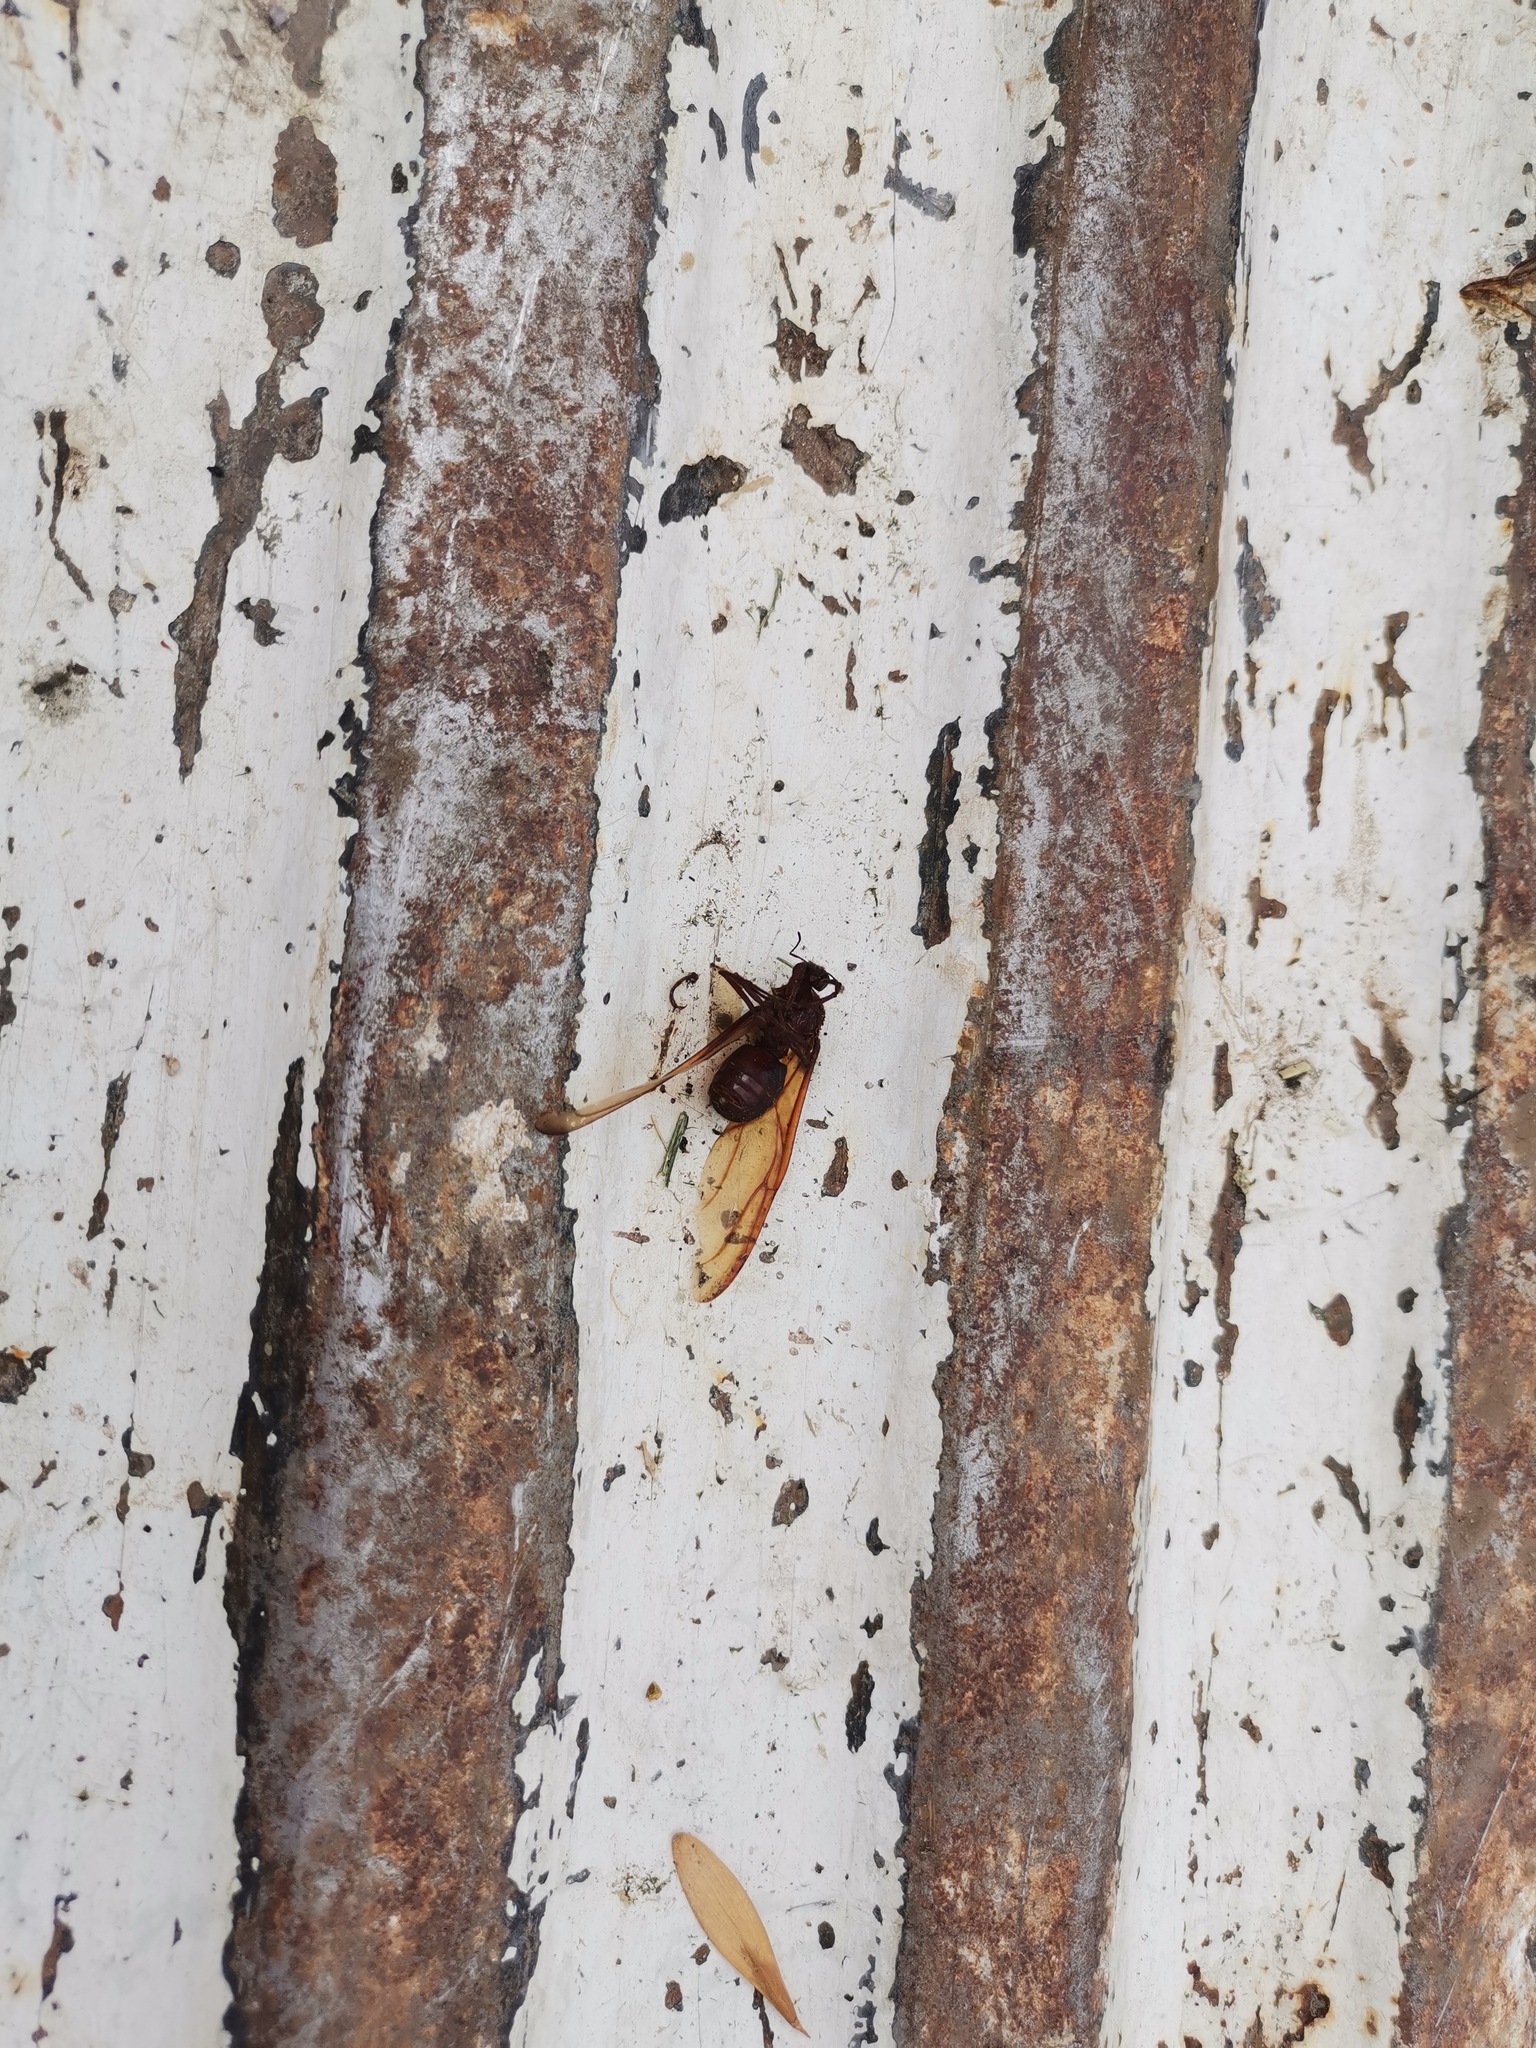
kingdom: Animalia
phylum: Arthropoda
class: Insecta
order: Hymenoptera
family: Formicidae
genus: Atta
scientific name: Atta mexicana
